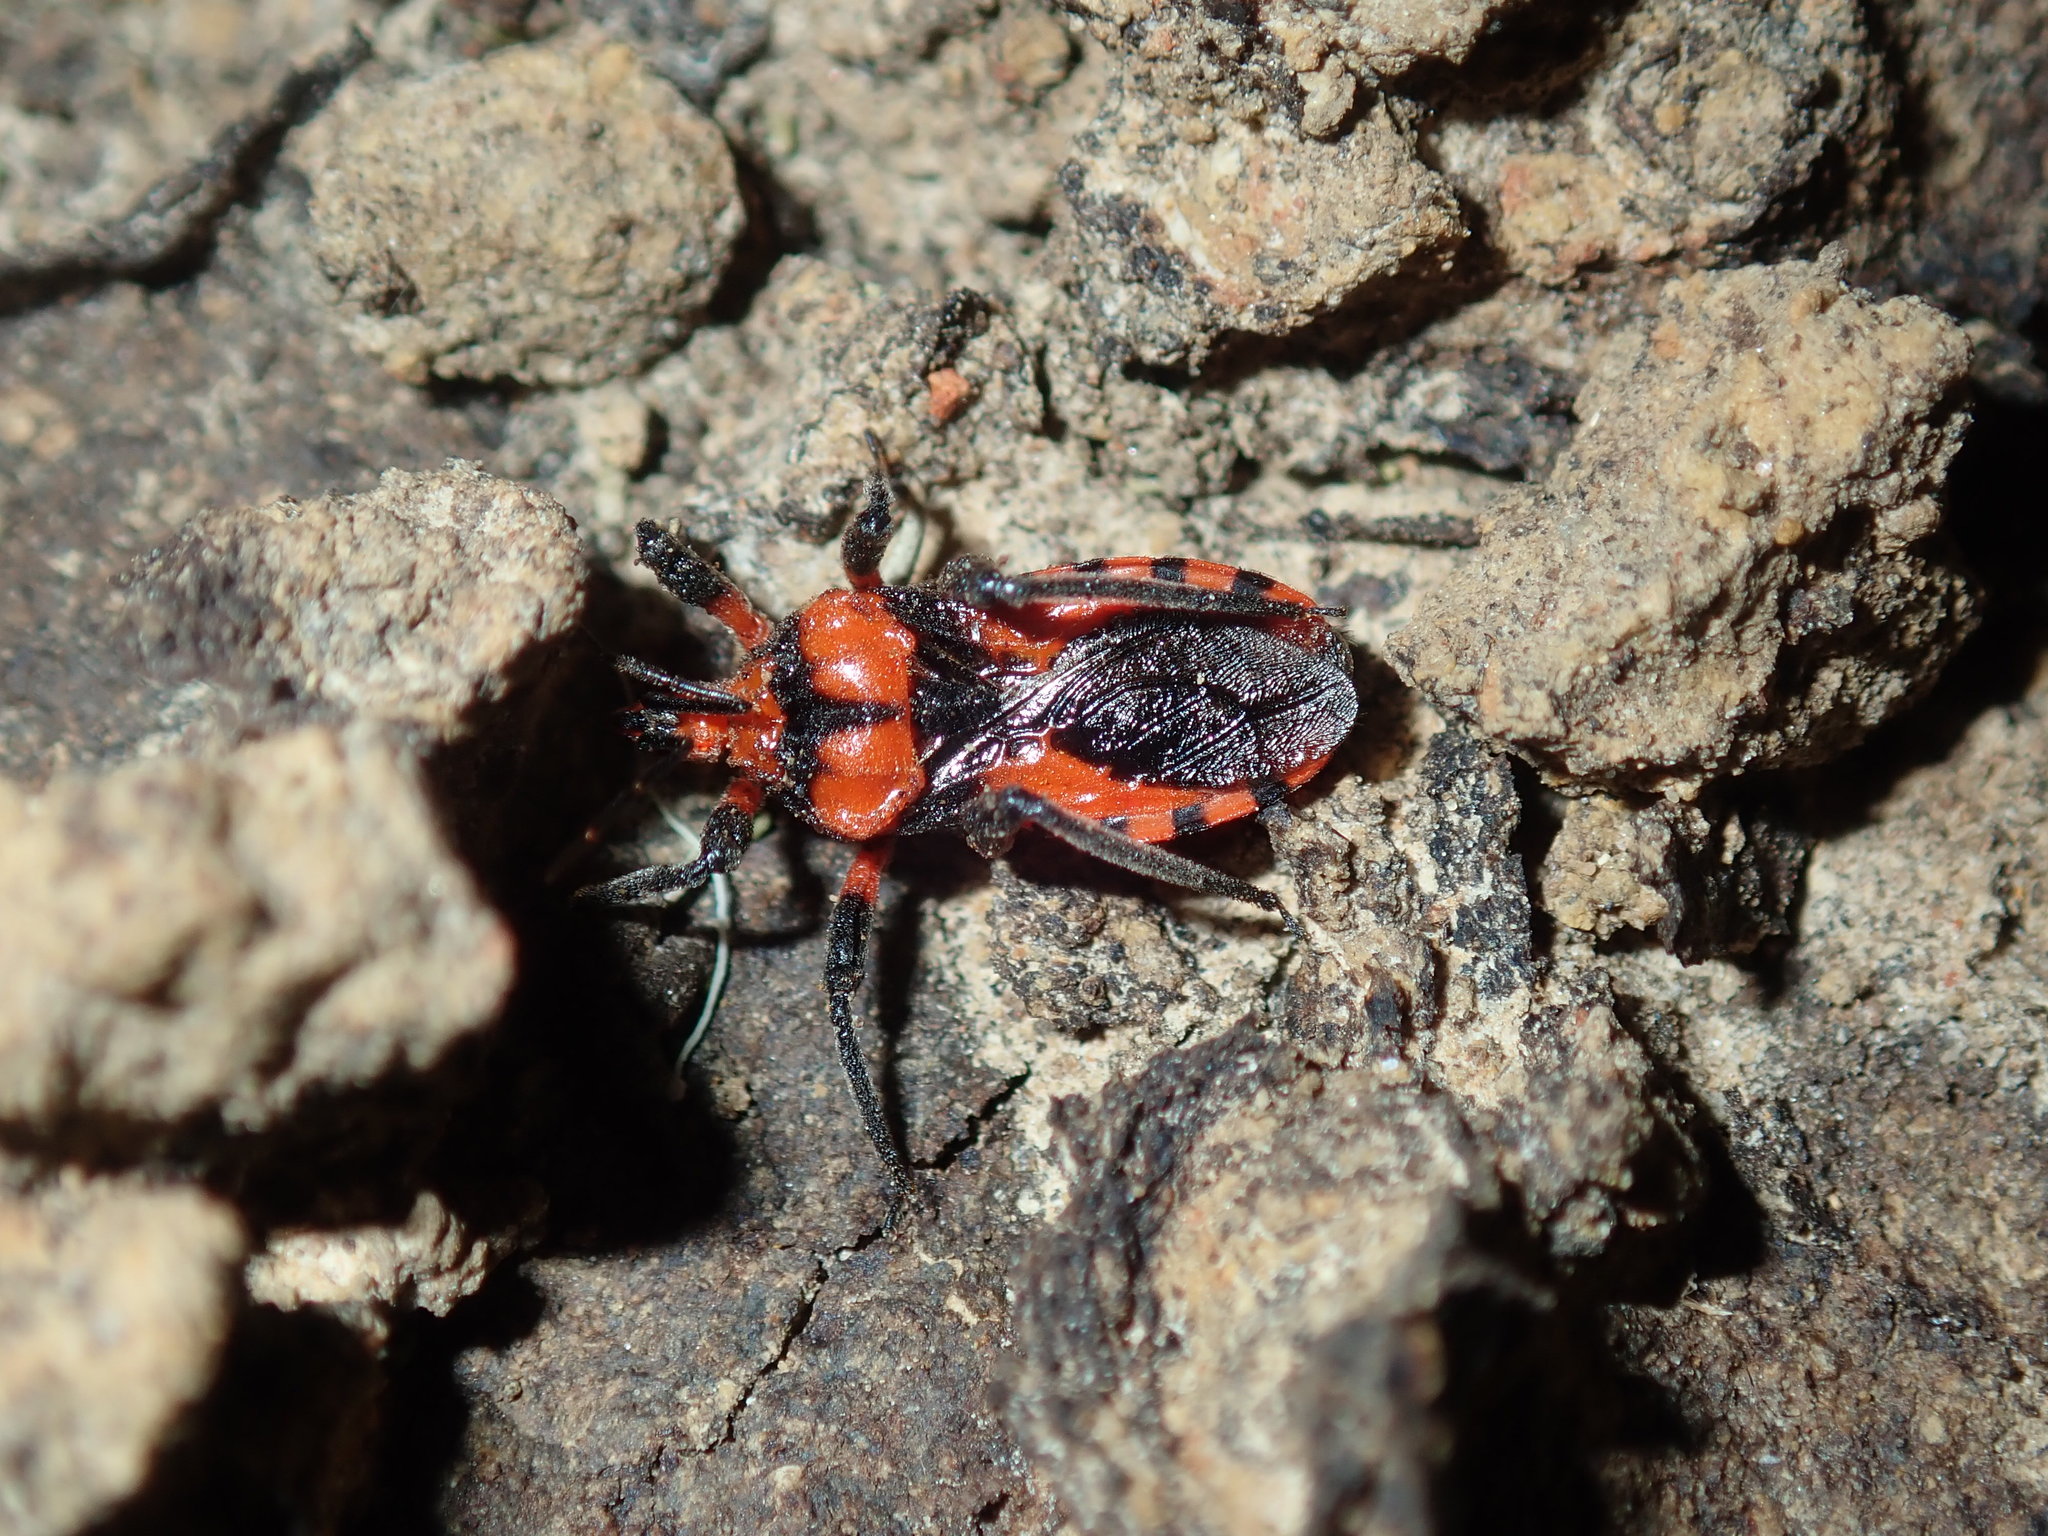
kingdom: Animalia
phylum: Arthropoda
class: Insecta
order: Hemiptera
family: Reduviidae
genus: Tegea
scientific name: Tegea atropicta
